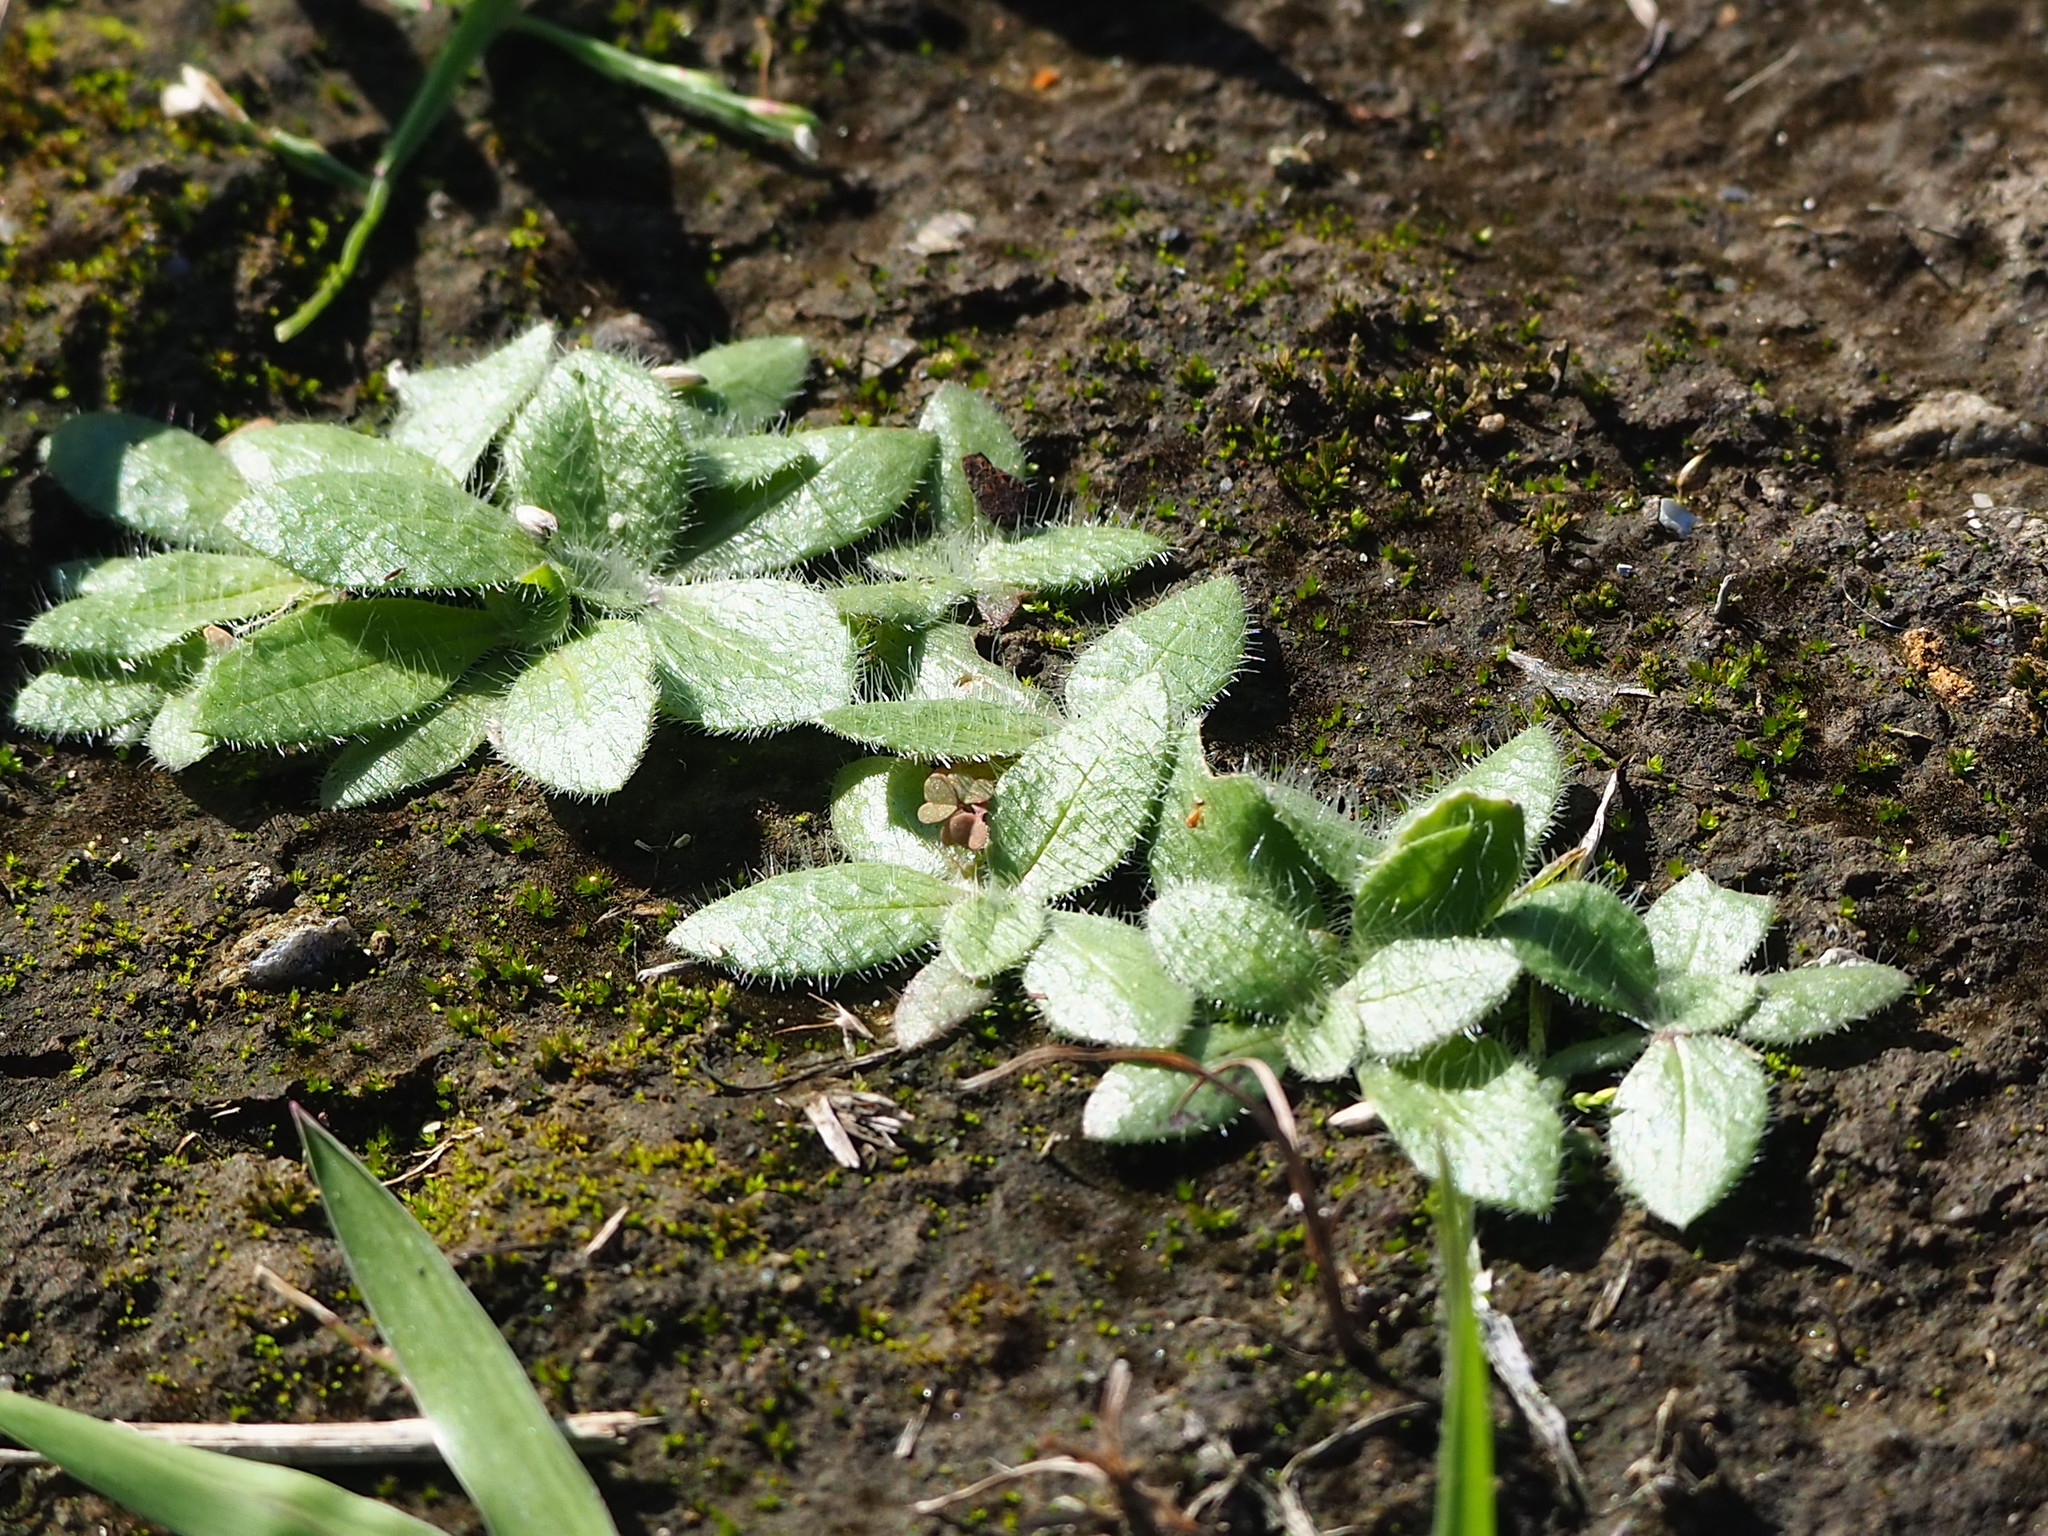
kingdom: Plantae
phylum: Tracheophyta
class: Magnoliopsida
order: Lamiales
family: Plantaginaceae
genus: Plantago
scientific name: Plantago virginica
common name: Hoary plantain
